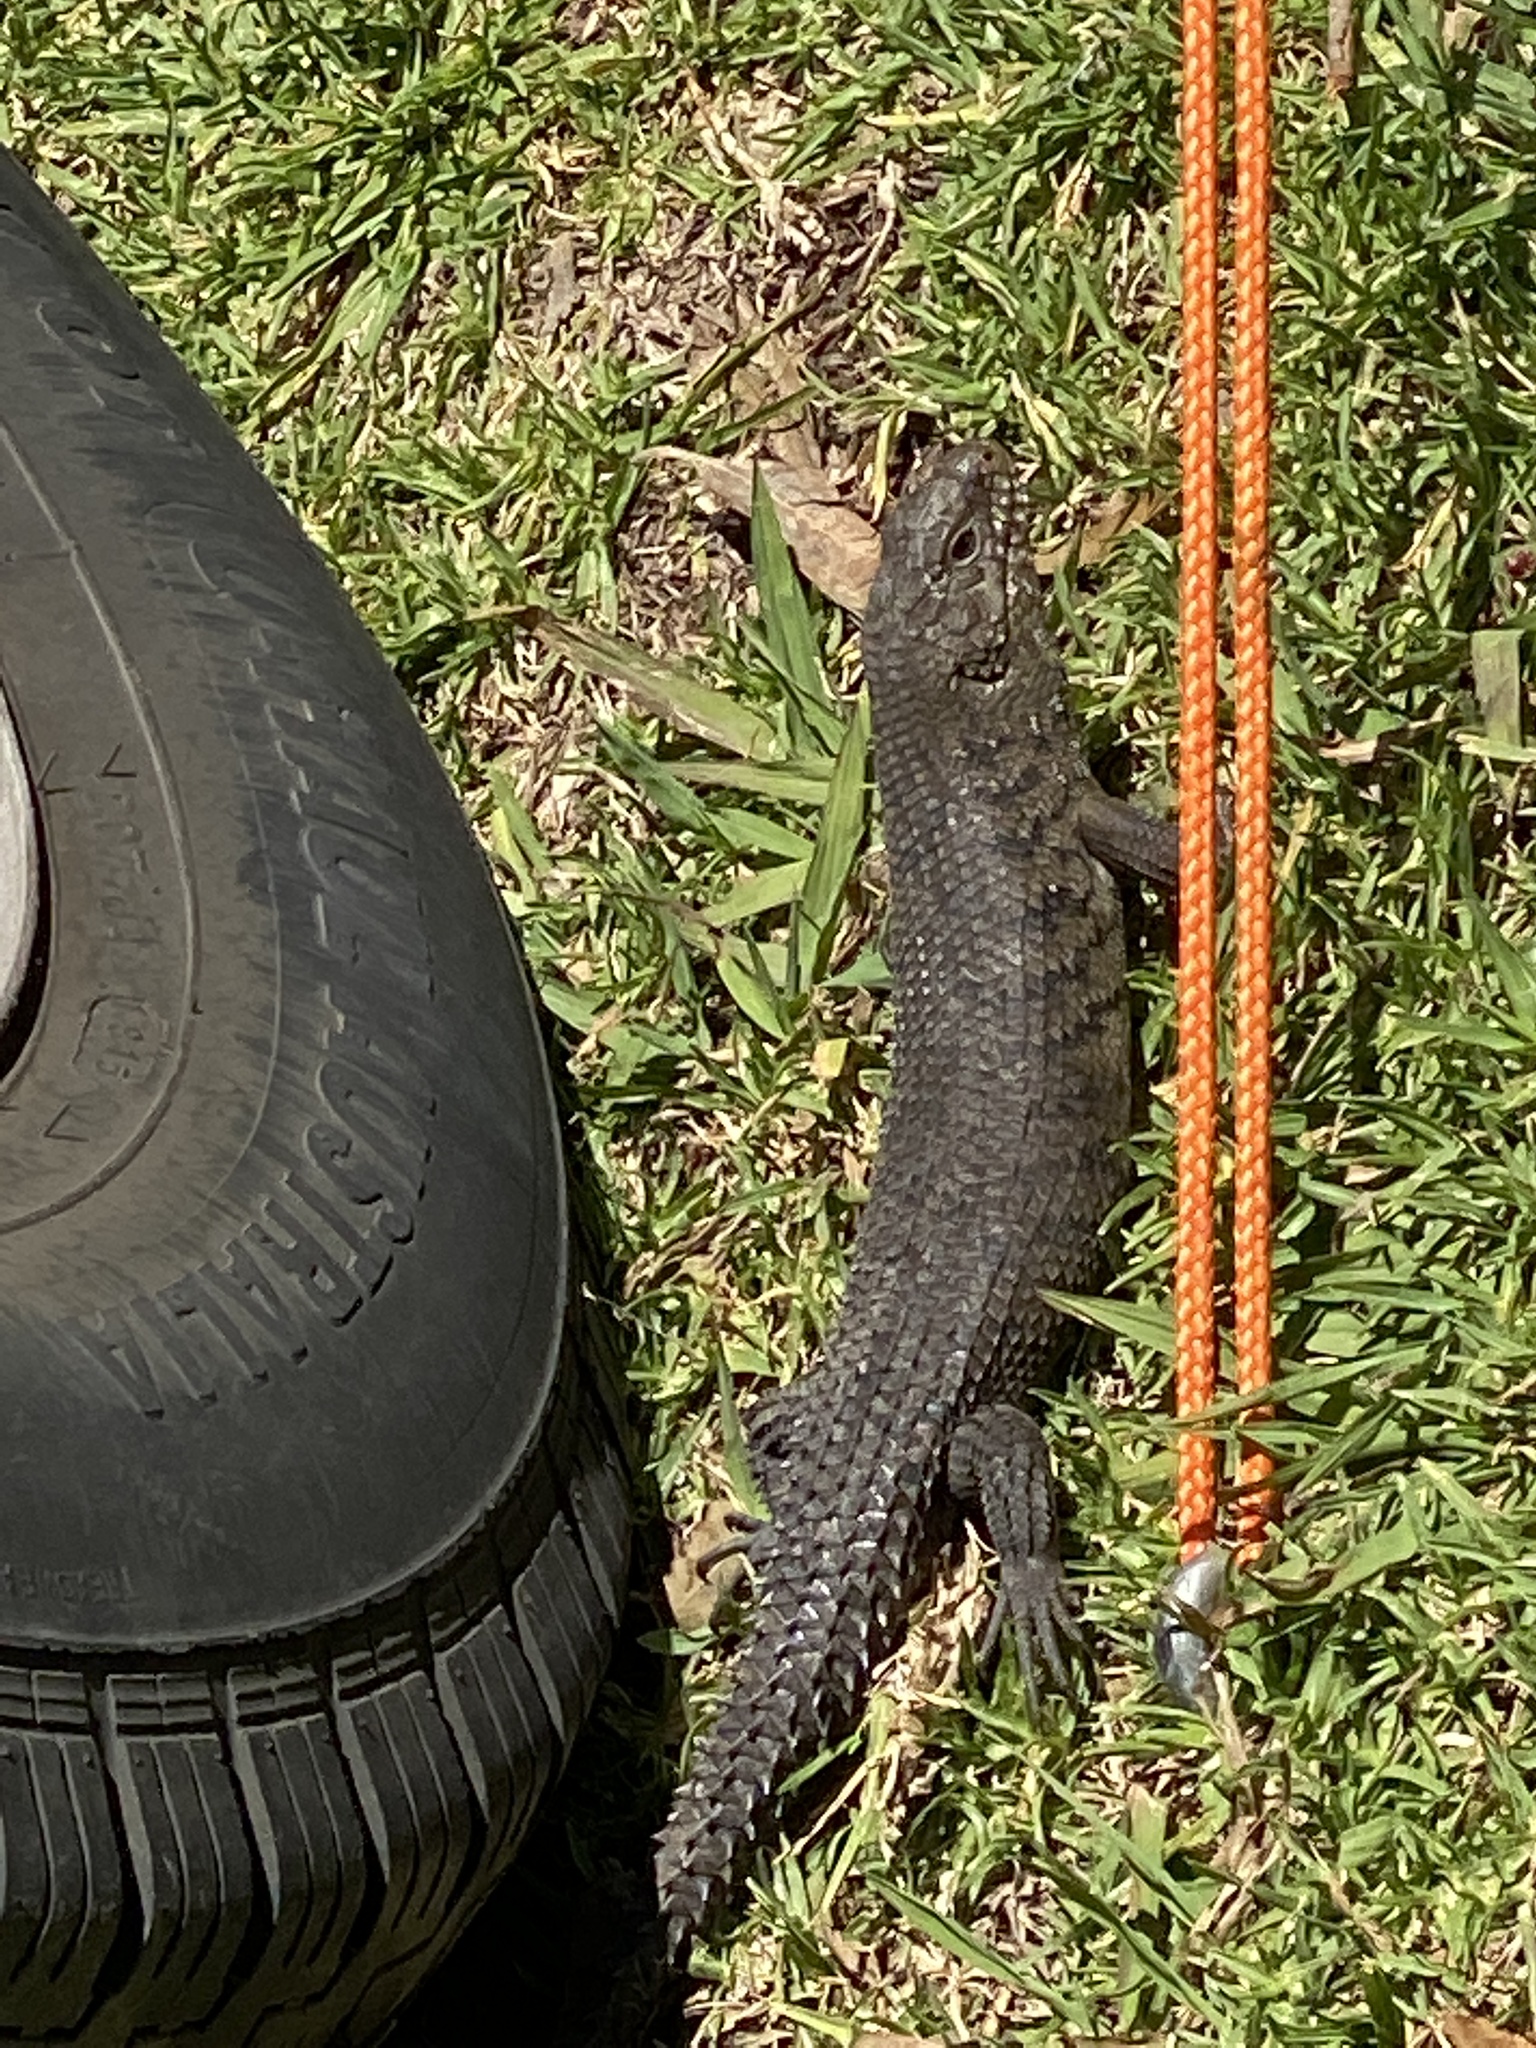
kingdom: Animalia
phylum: Chordata
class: Squamata
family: Scincidae
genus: Egernia
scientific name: Egernia cunninghami
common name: Cunningham's skink
